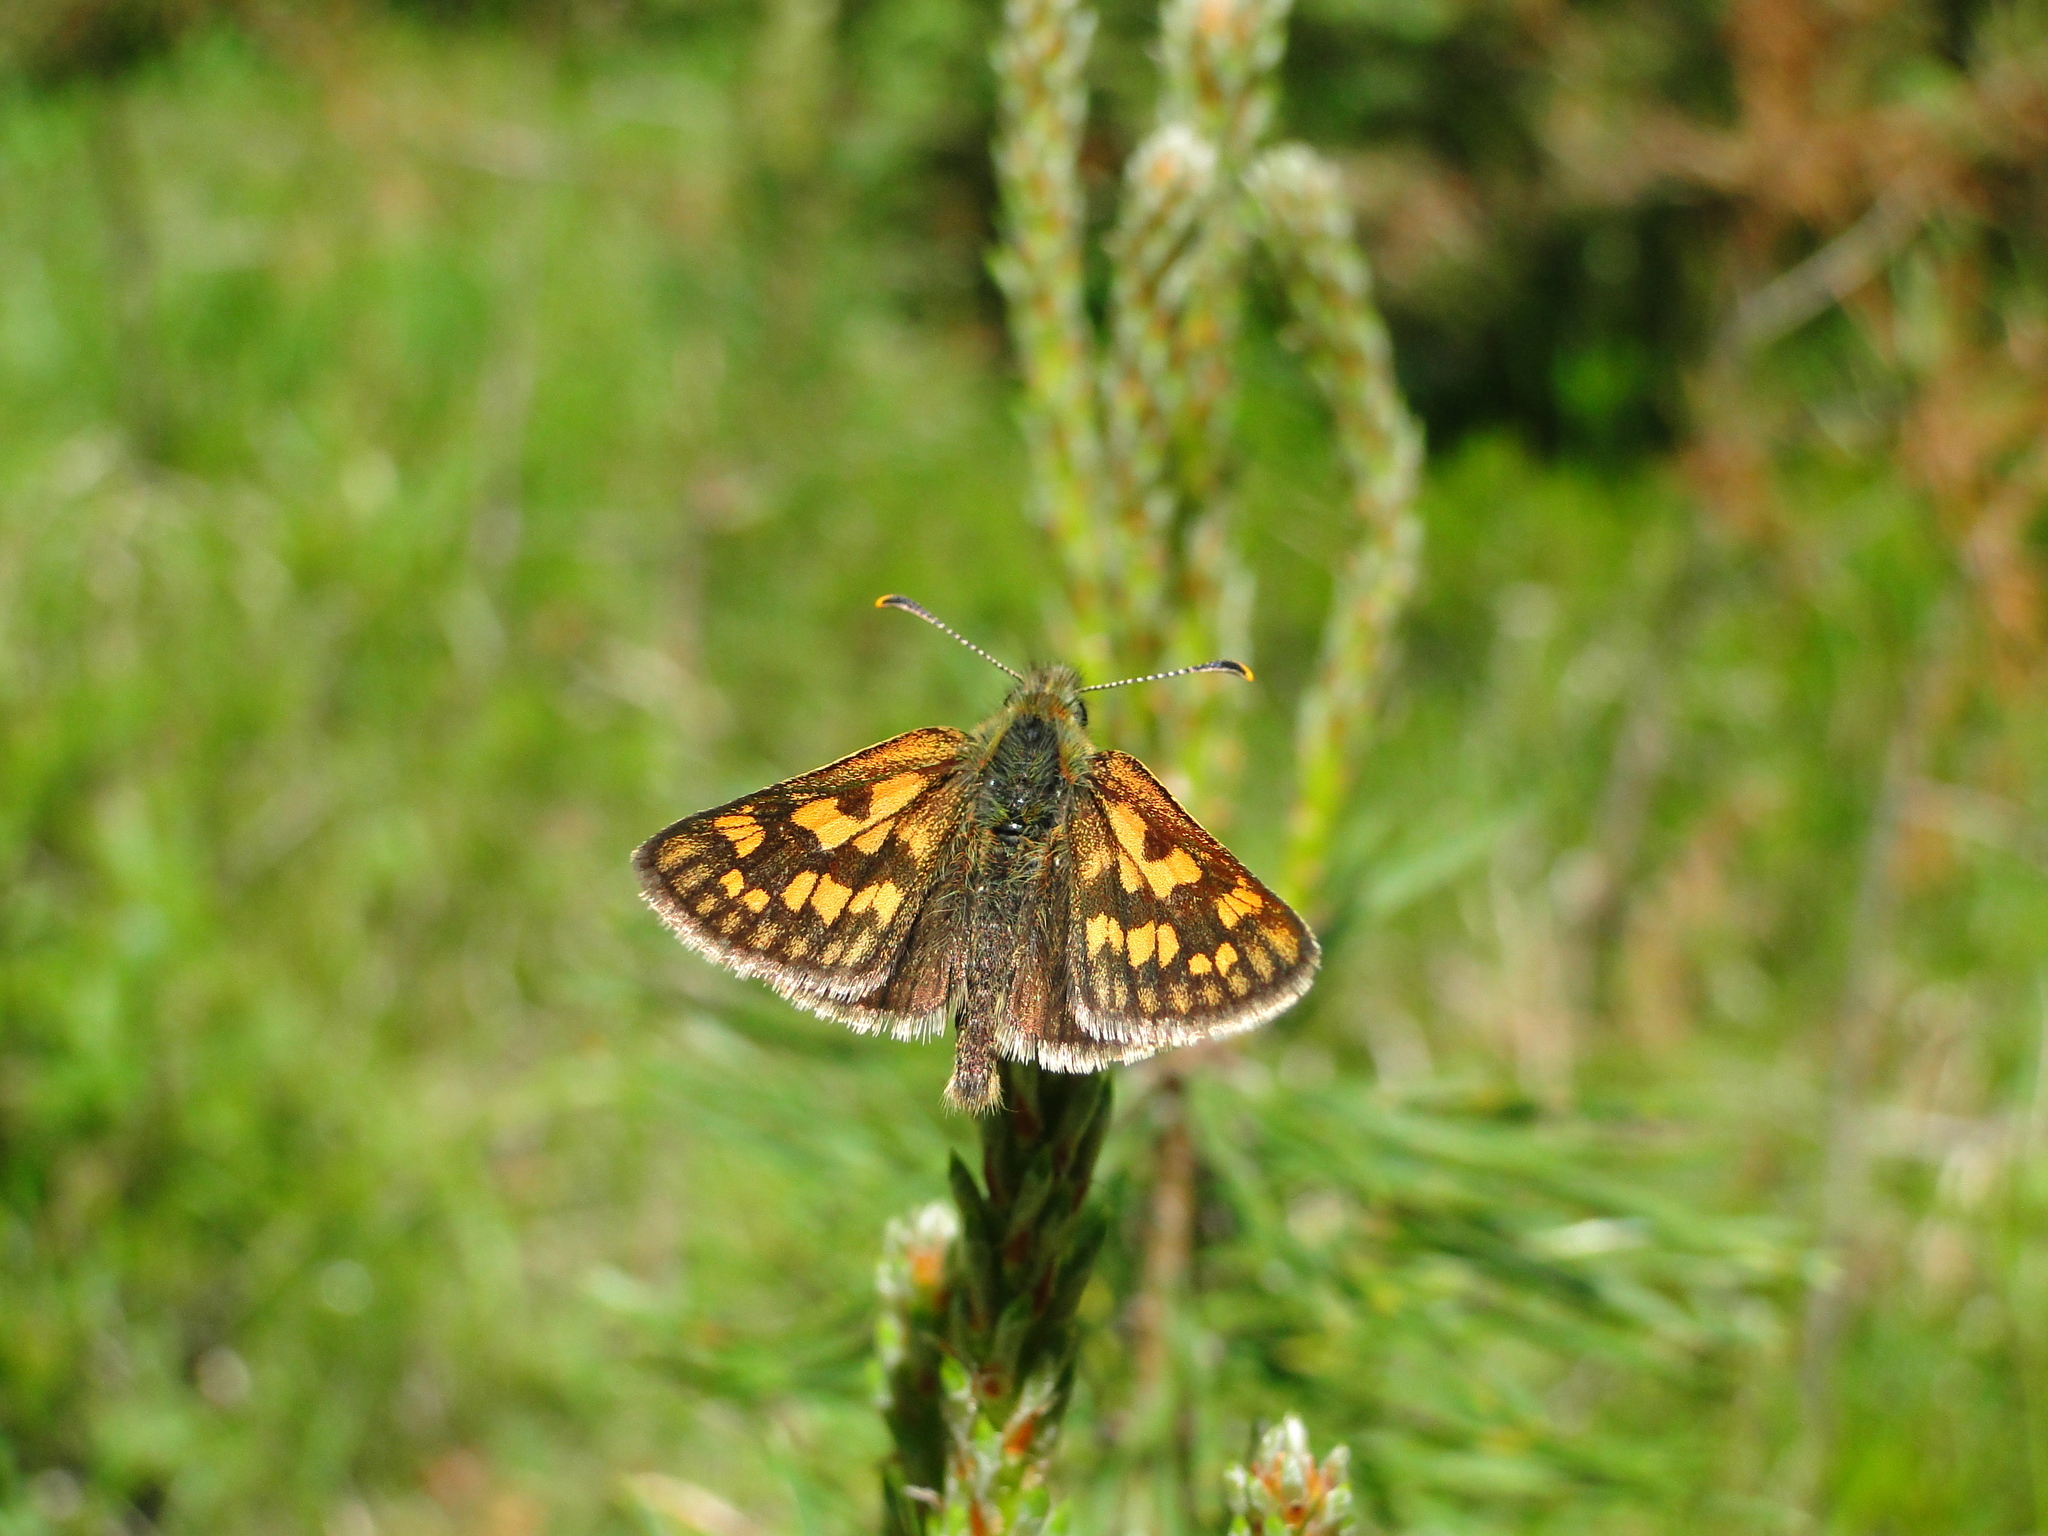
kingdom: Animalia
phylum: Arthropoda
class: Insecta
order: Lepidoptera
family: Hesperiidae
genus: Carterocephalus
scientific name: Carterocephalus palaemon
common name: Chequered skipper
